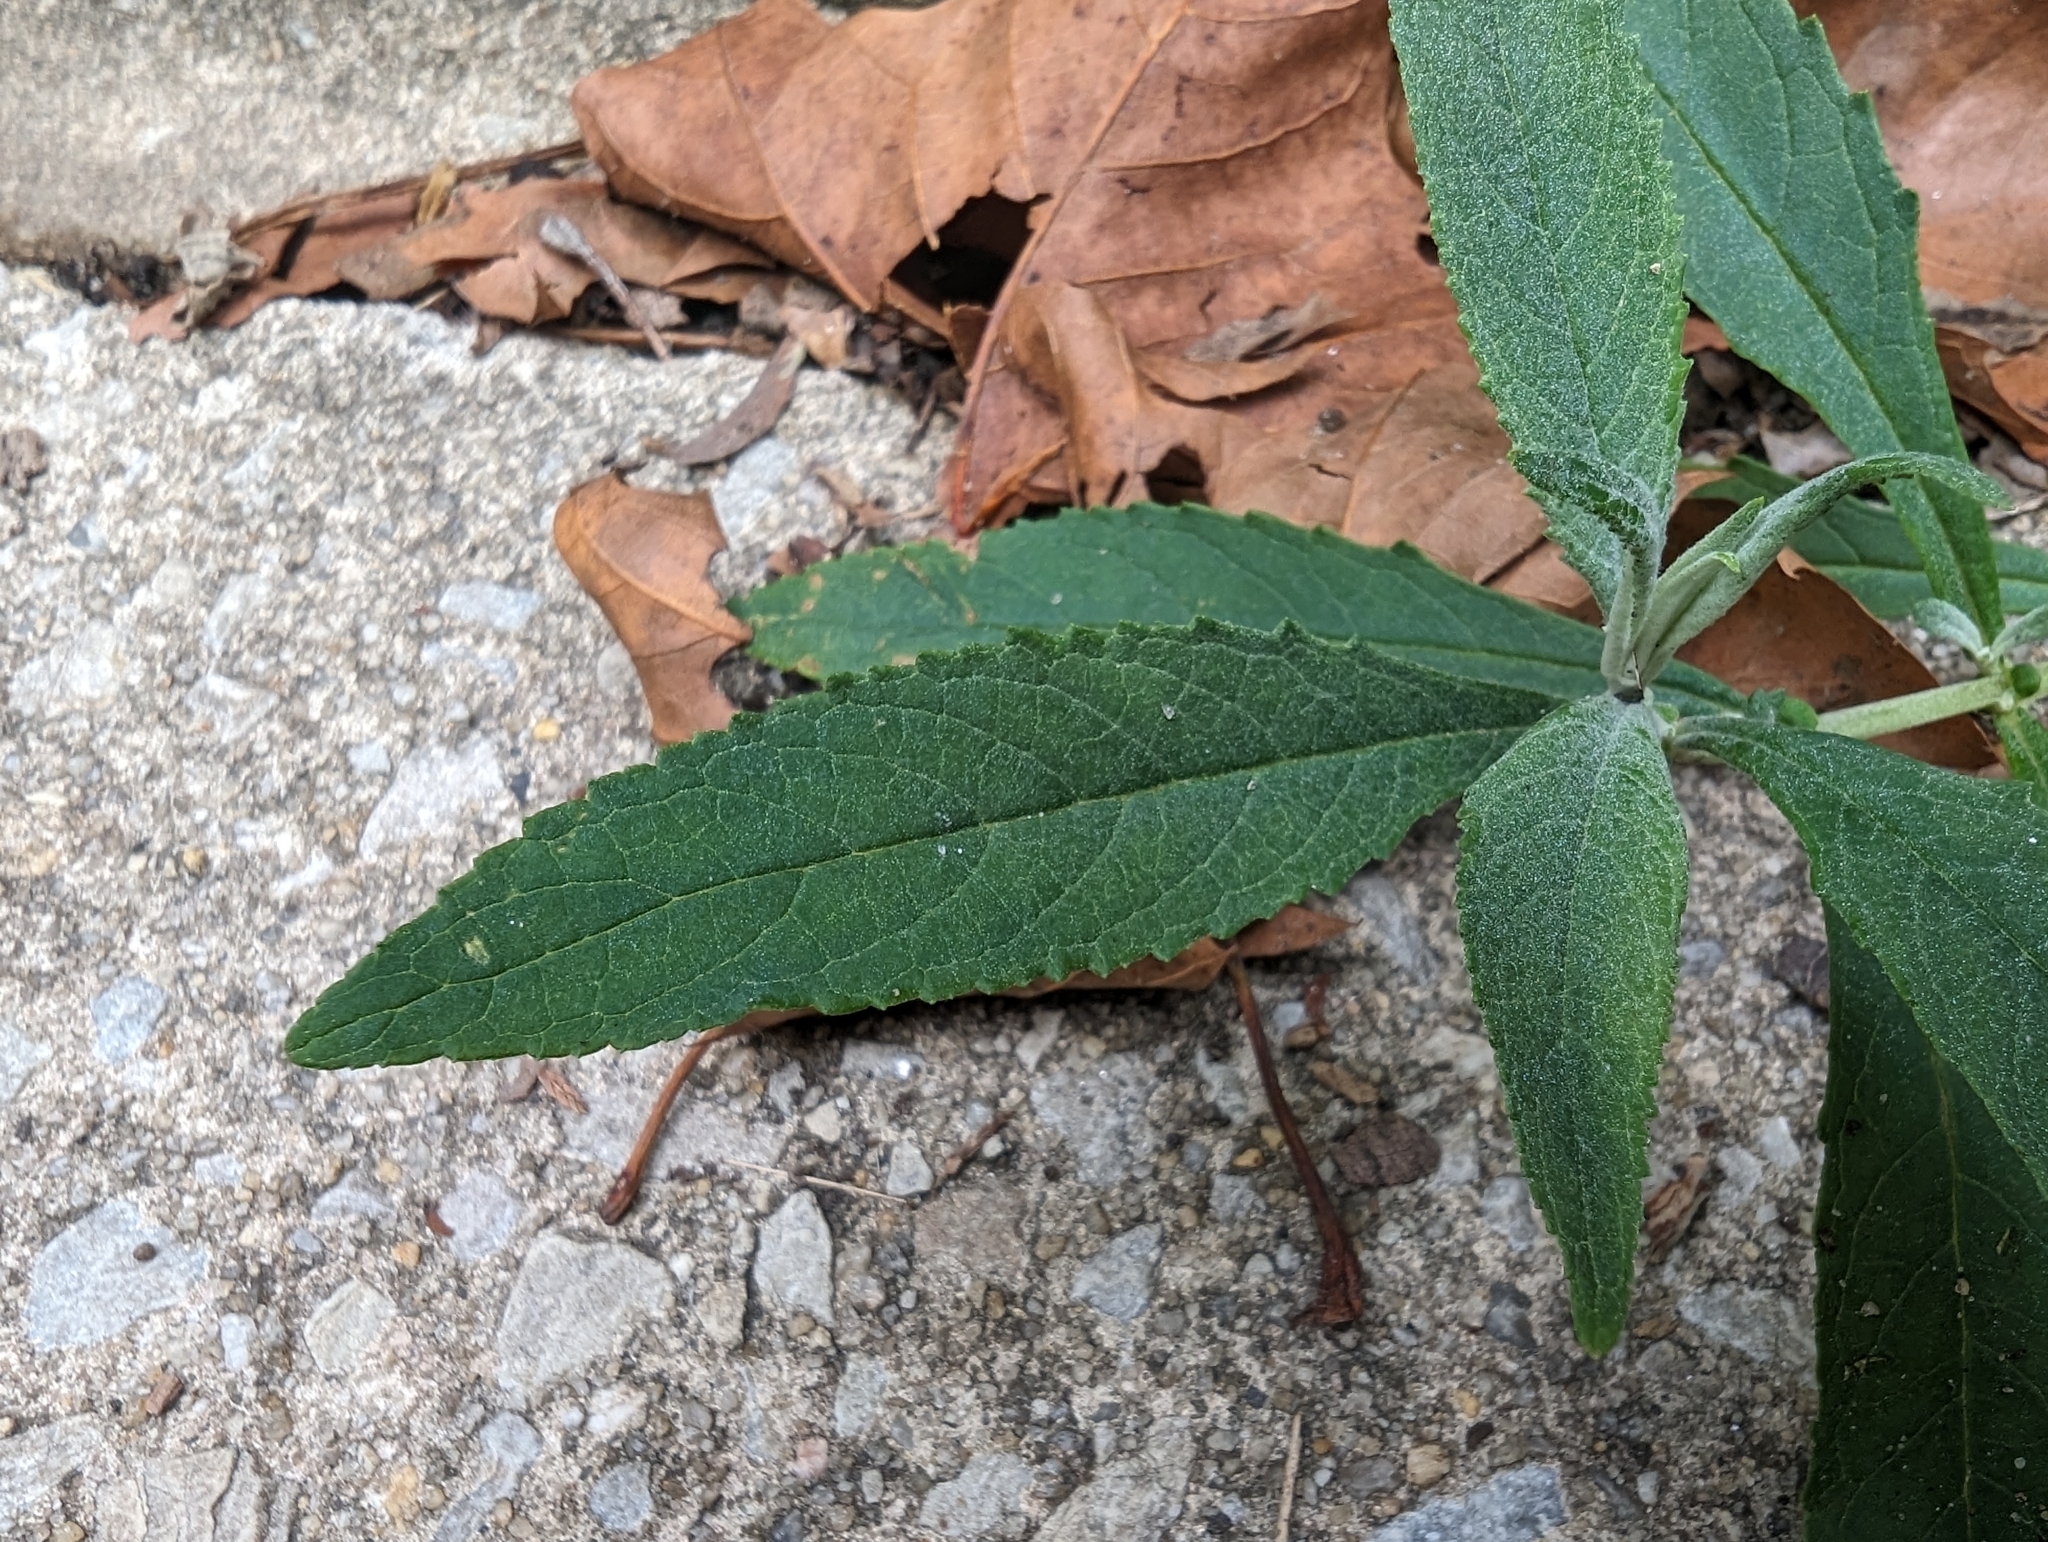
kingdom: Plantae
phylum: Tracheophyta
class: Magnoliopsida
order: Lamiales
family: Scrophulariaceae
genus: Buddleja
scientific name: Buddleja davidii
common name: Butterfly-bush
